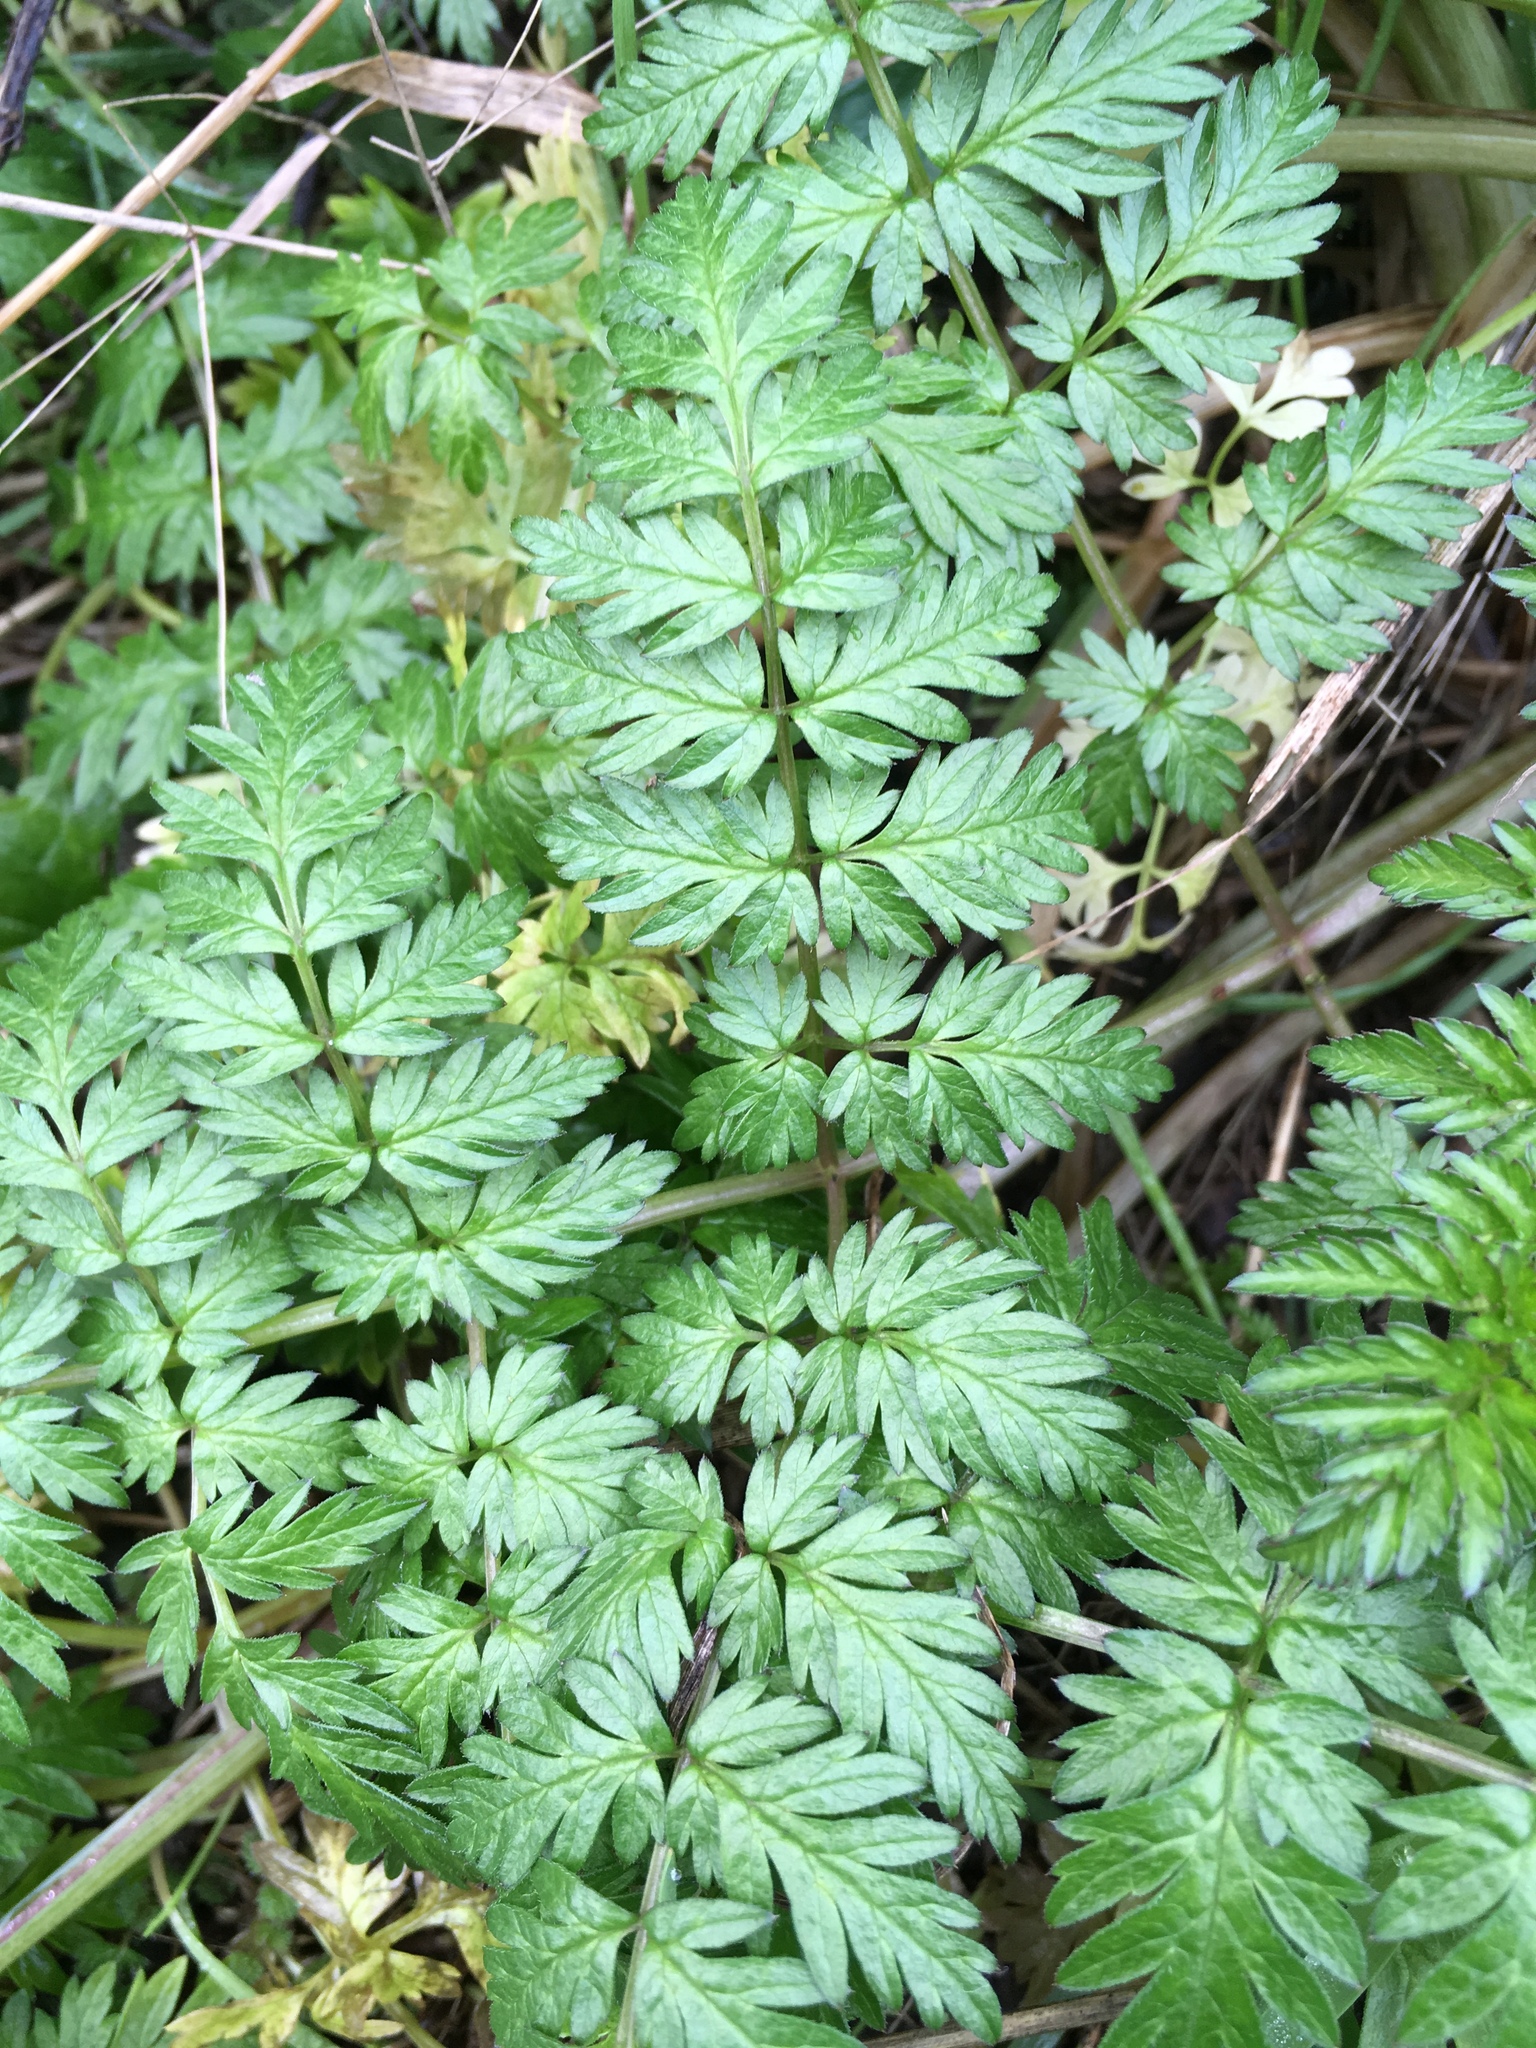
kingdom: Plantae
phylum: Tracheophyta
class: Magnoliopsida
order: Apiales
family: Apiaceae
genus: Anthriscus
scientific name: Anthriscus sylvestris
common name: Cow parsley
